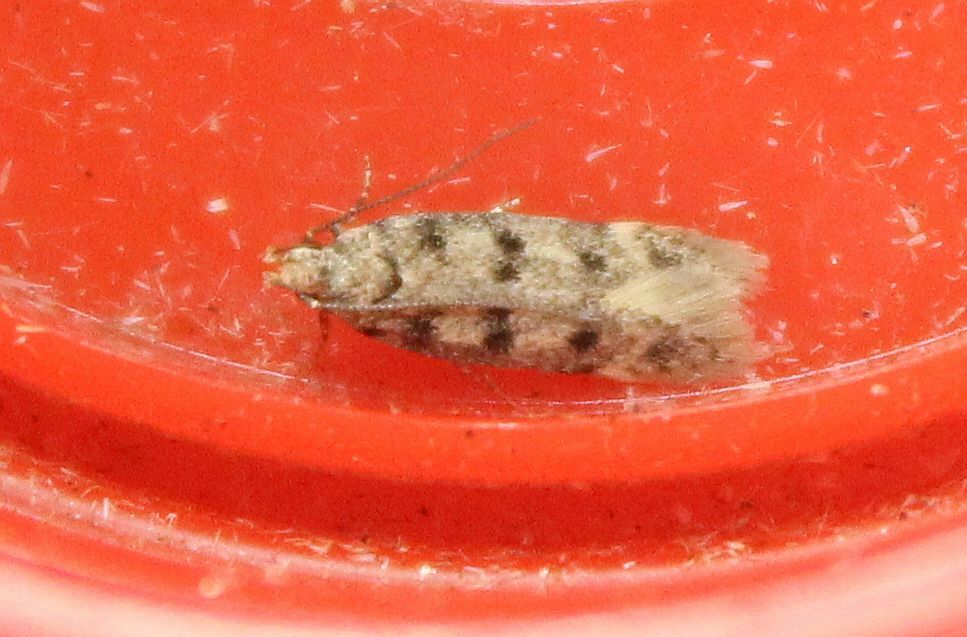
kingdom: Animalia
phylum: Arthropoda
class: Insecta
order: Lepidoptera
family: Gelechiidae
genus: Bryotropha
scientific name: Bryotropha domestica
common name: House groundling
